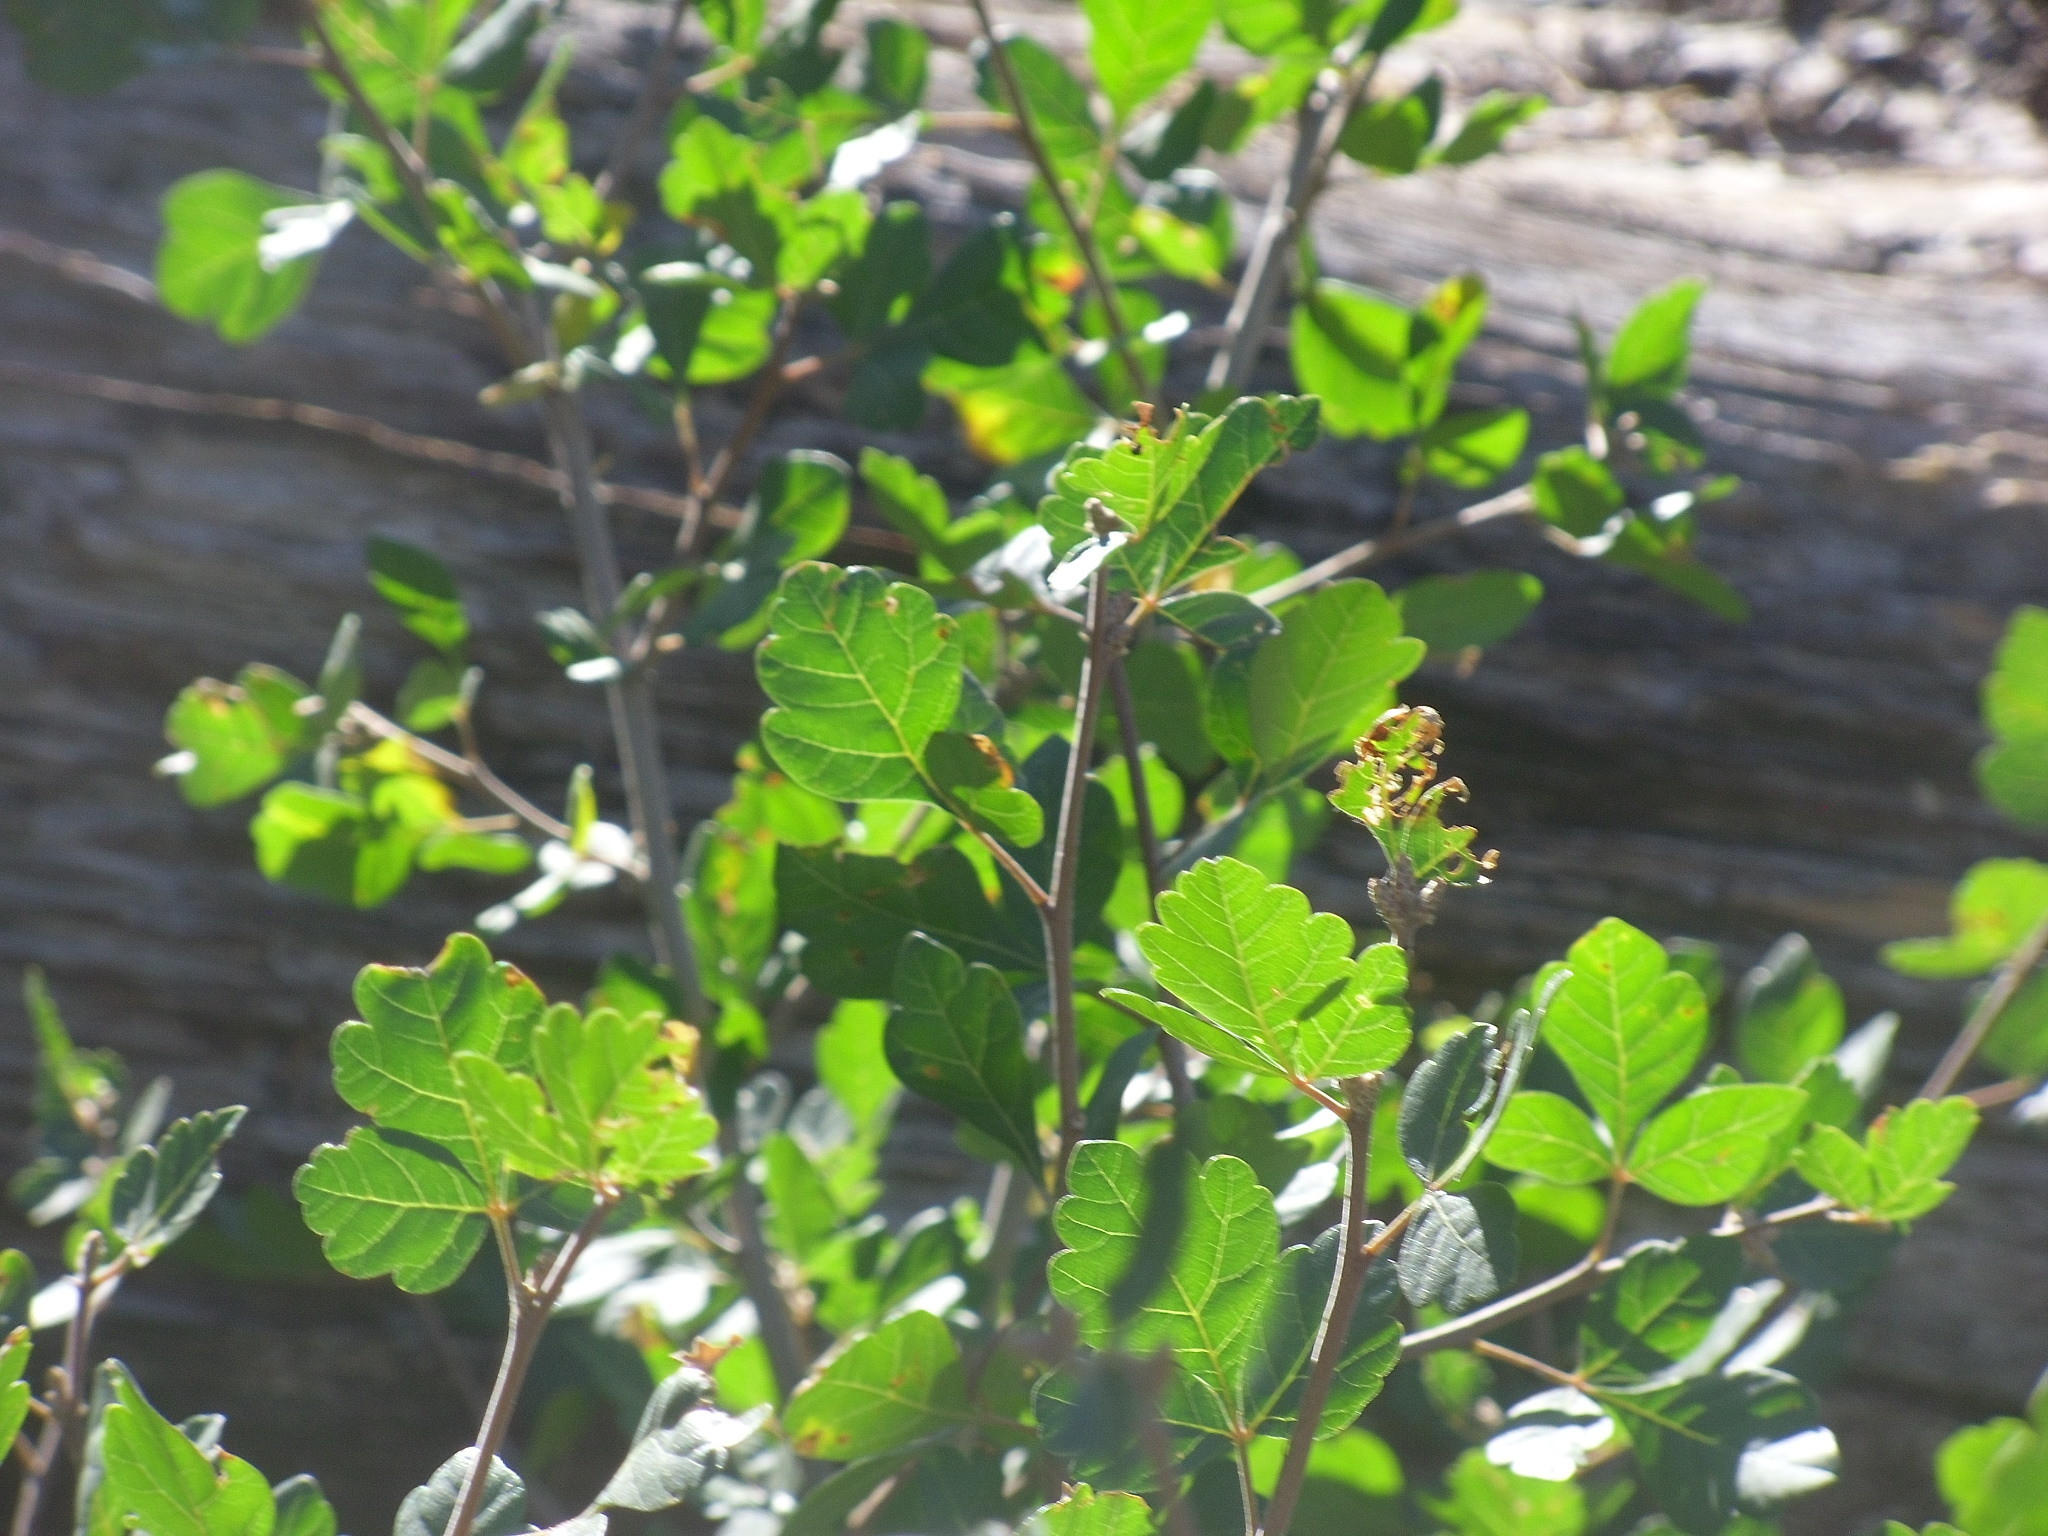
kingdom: Plantae
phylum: Tracheophyta
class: Magnoliopsida
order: Saxifragales
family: Grossulariaceae
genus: Ribes
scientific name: Ribes aureum
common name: Golden currant
